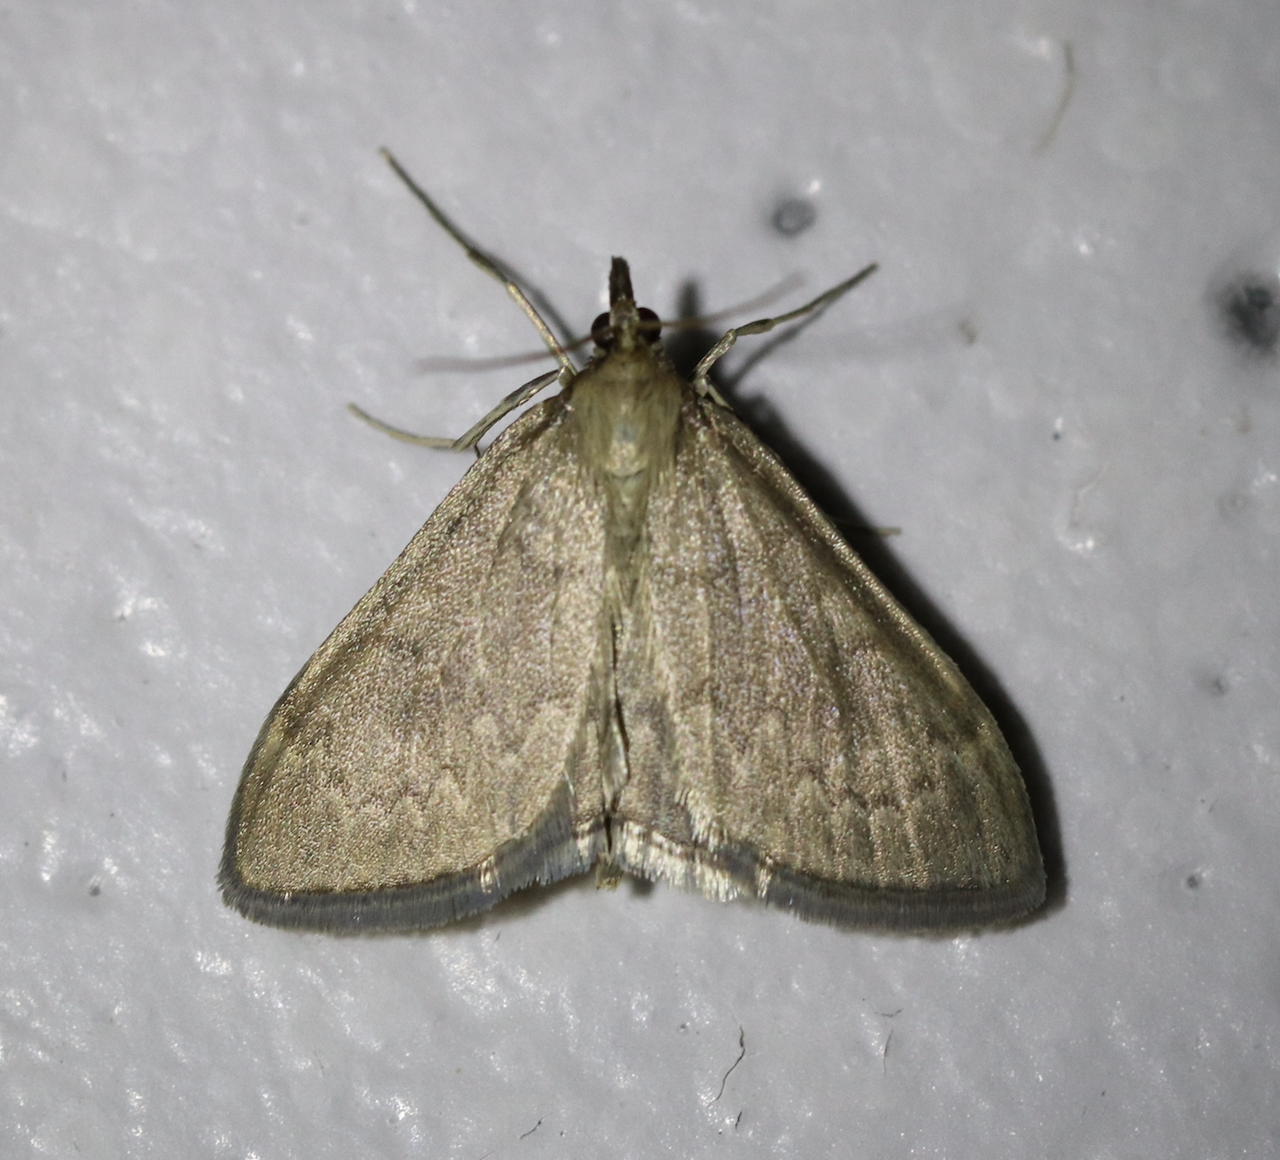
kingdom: Animalia
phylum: Arthropoda
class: Insecta
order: Lepidoptera
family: Crambidae
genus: Anania
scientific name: Anania fuscalis
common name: Cinerous pearl
